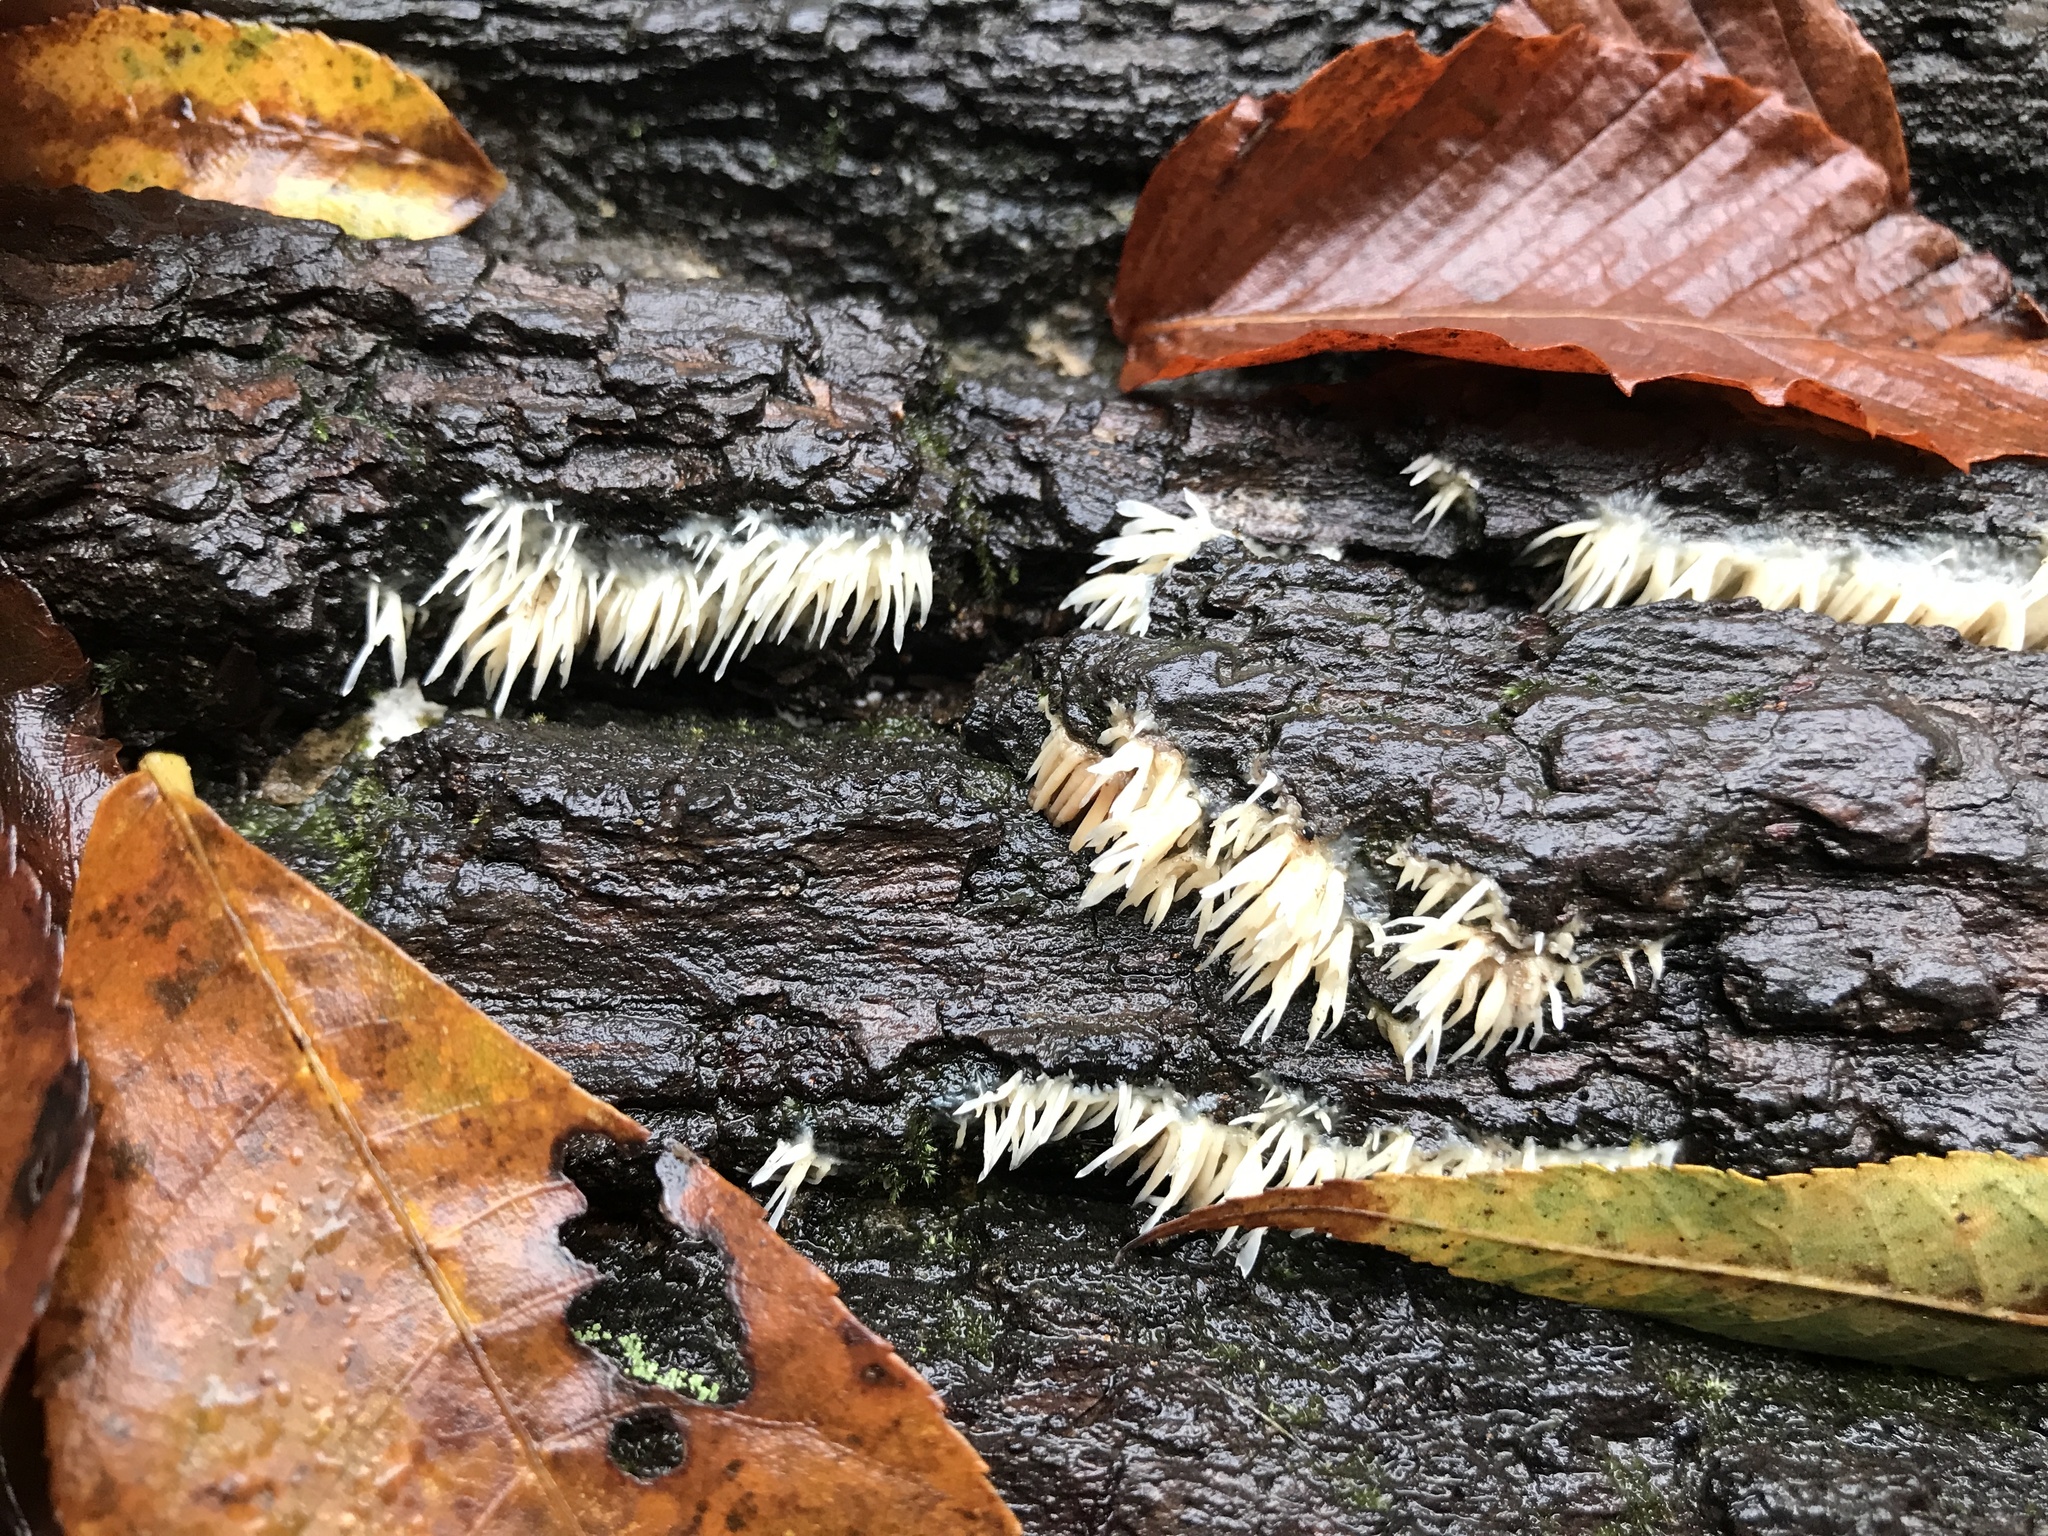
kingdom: Fungi
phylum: Basidiomycota
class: Agaricomycetes
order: Agaricales
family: Radulomycetaceae
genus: Radulomyces
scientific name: Radulomyces copelandii
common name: Asian beauty
